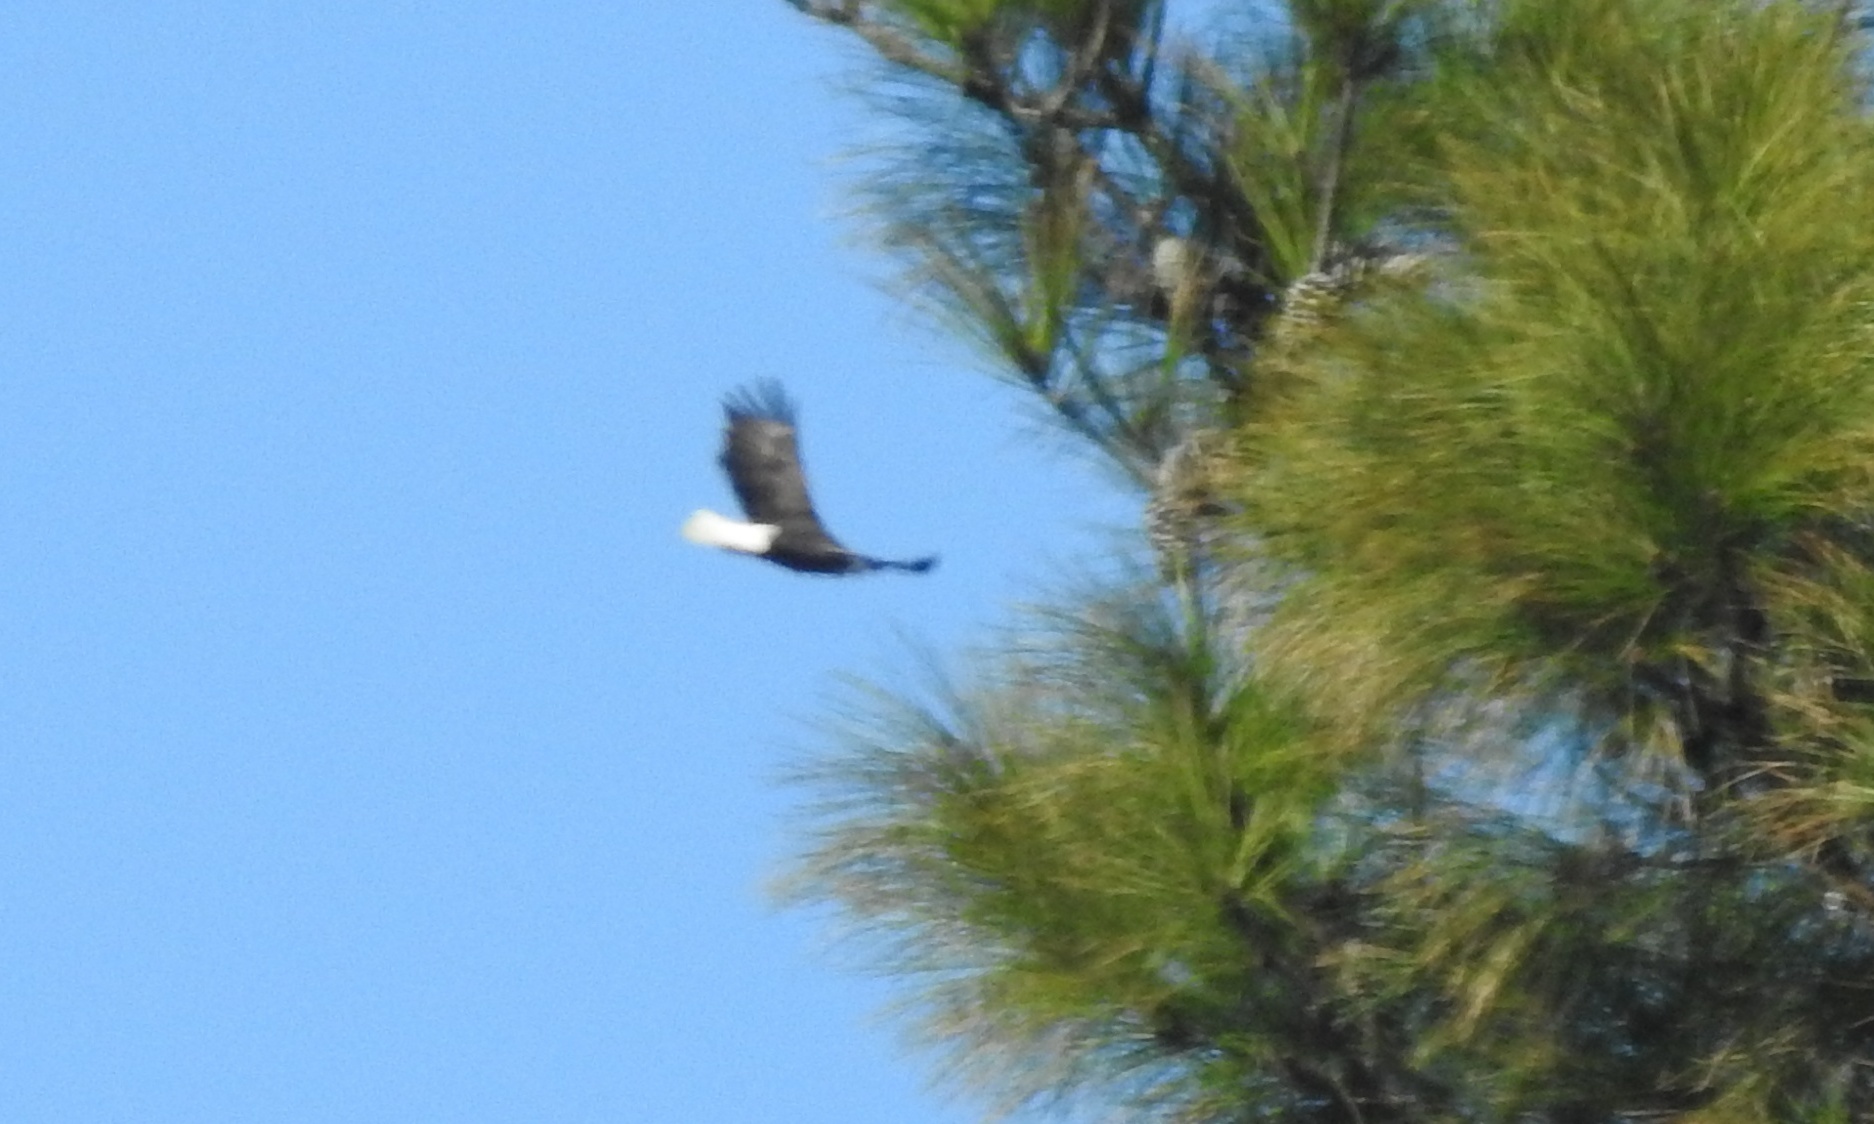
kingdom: Animalia
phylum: Chordata
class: Aves
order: Accipitriformes
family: Accipitridae
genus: Haliaeetus
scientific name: Haliaeetus leucocephalus
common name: Bald eagle
